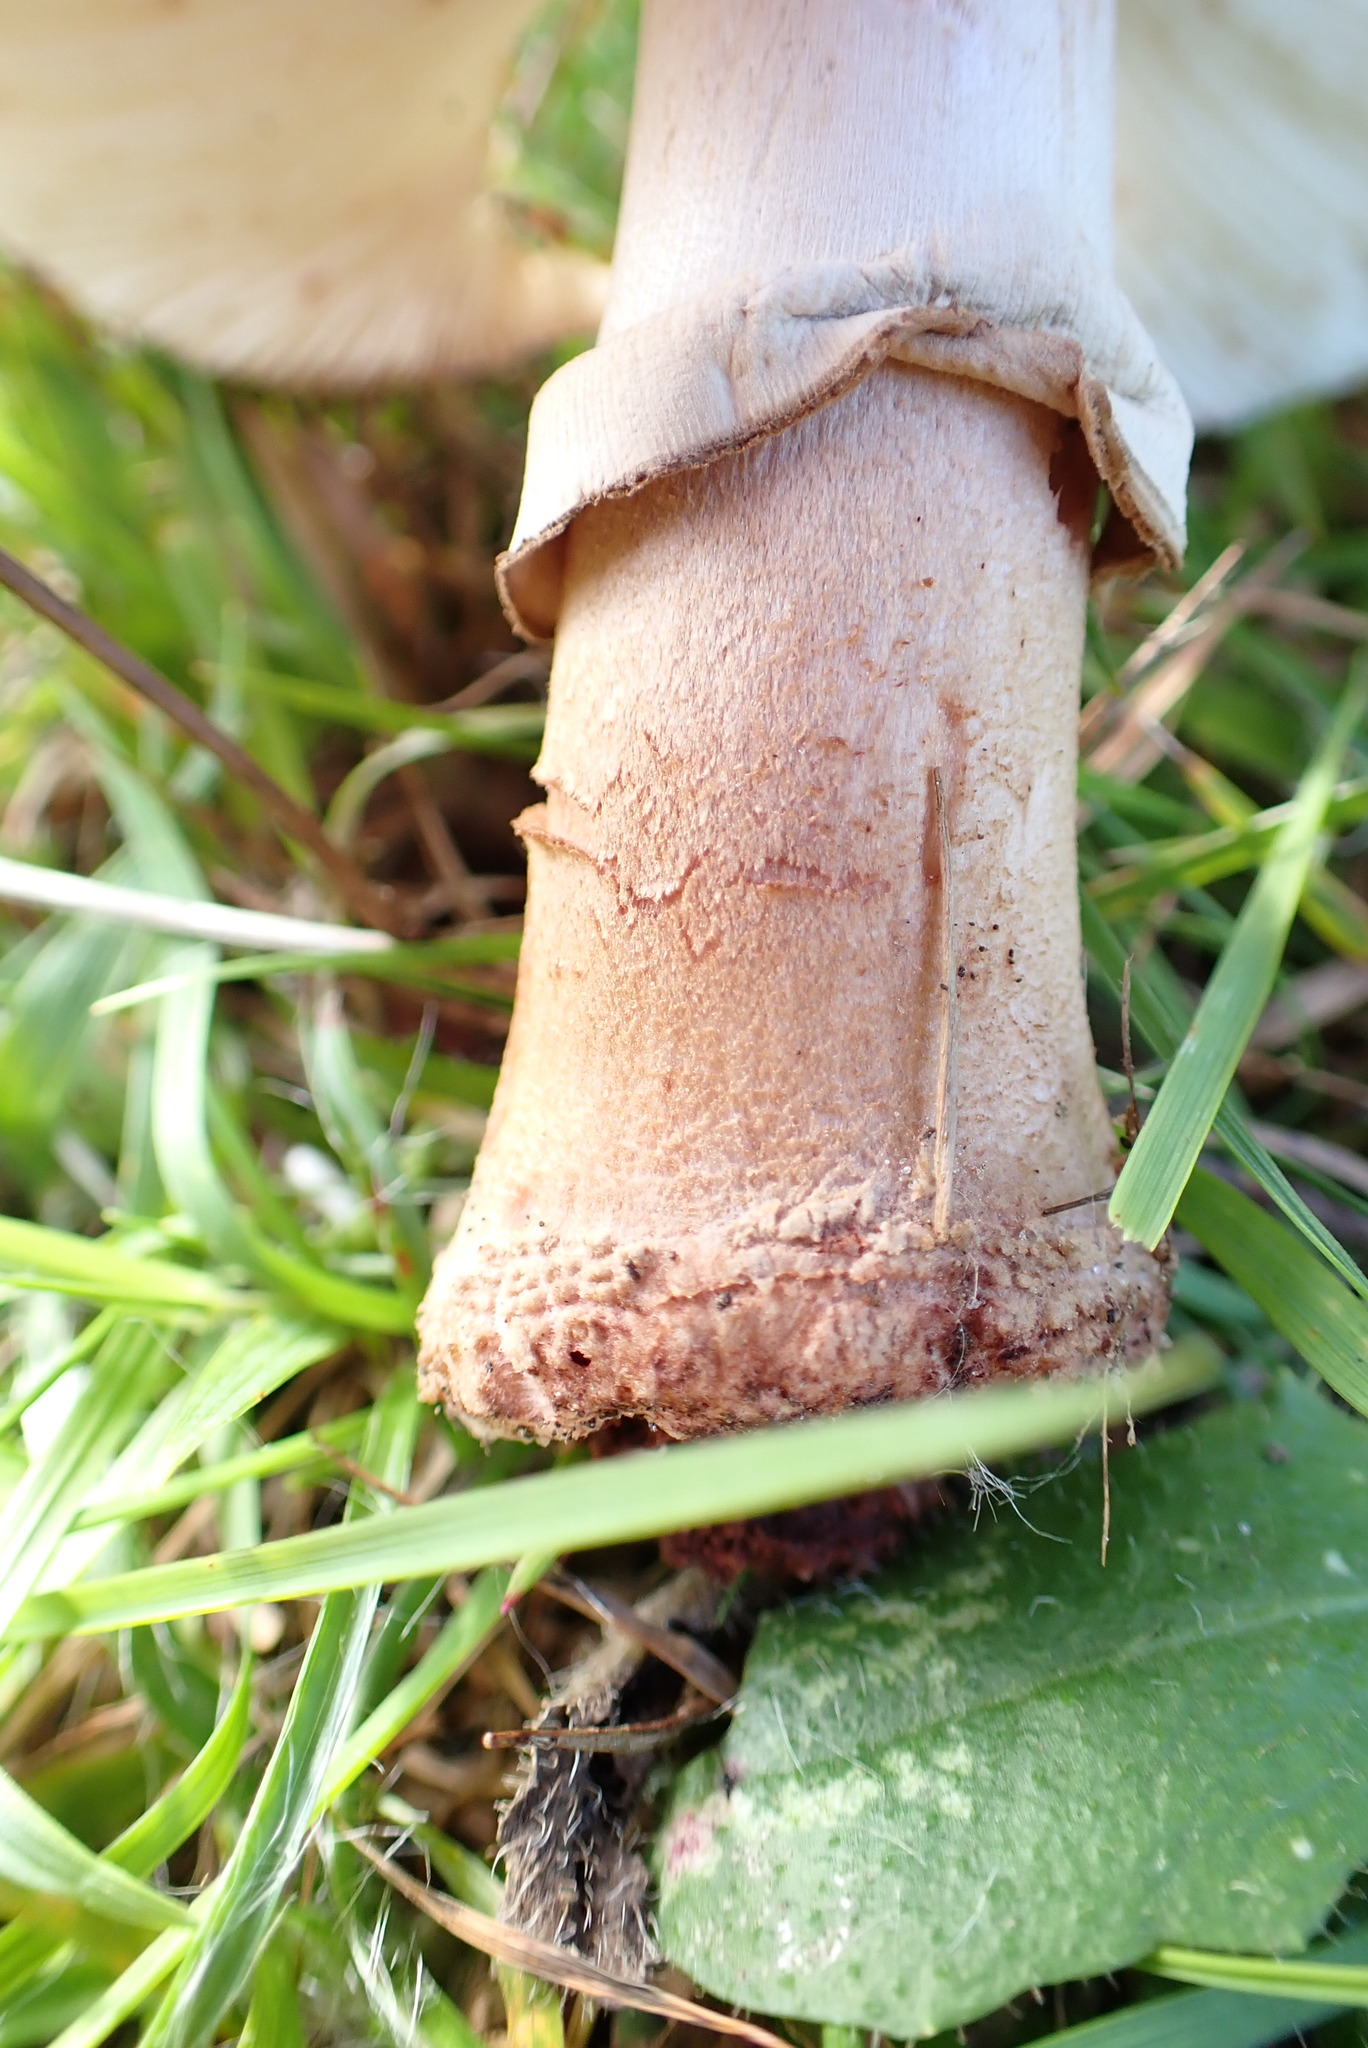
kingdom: Fungi
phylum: Basidiomycota
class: Agaricomycetes
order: Agaricales
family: Amanitaceae
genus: Amanita
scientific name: Amanita rubescens
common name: Blusher
